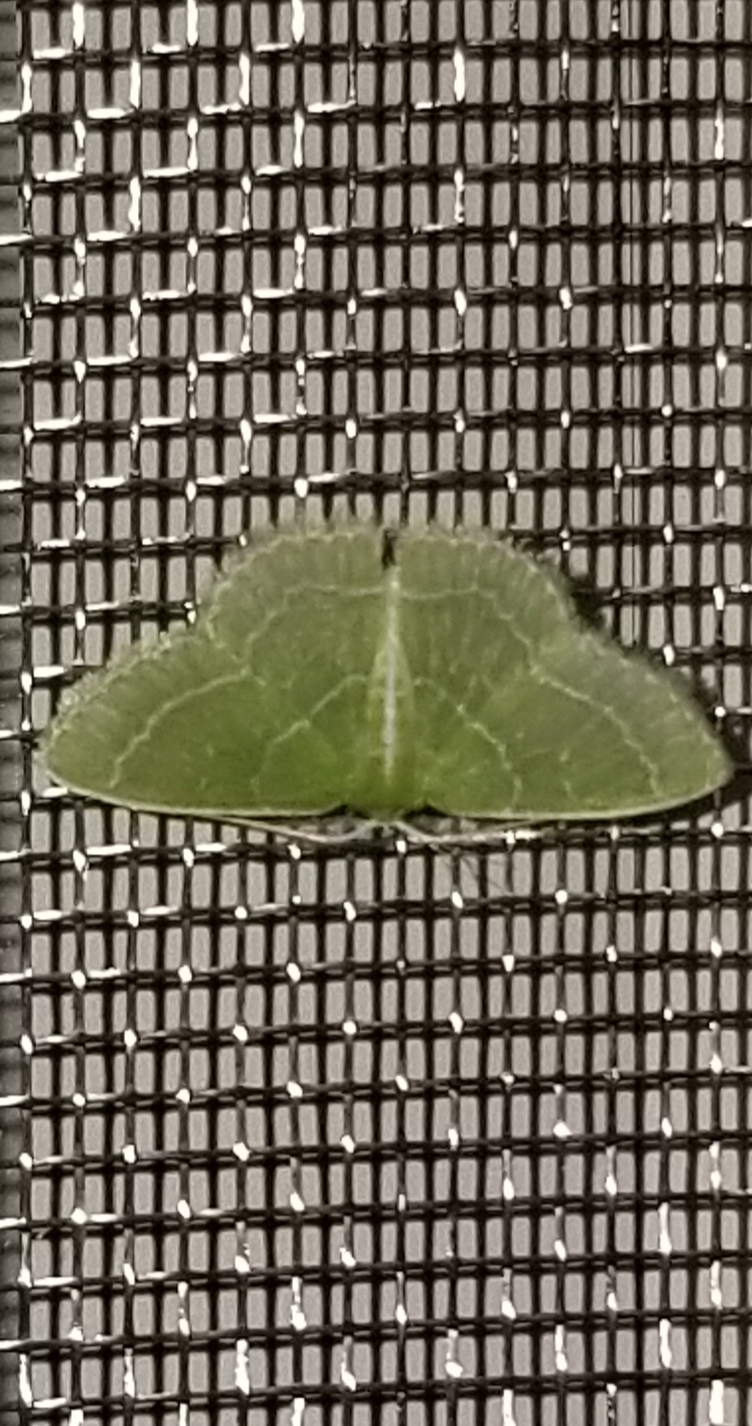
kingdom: Animalia
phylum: Arthropoda
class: Insecta
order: Lepidoptera
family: Geometridae
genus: Synchlora
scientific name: Synchlora aerata
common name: Wavy-lined emerald
